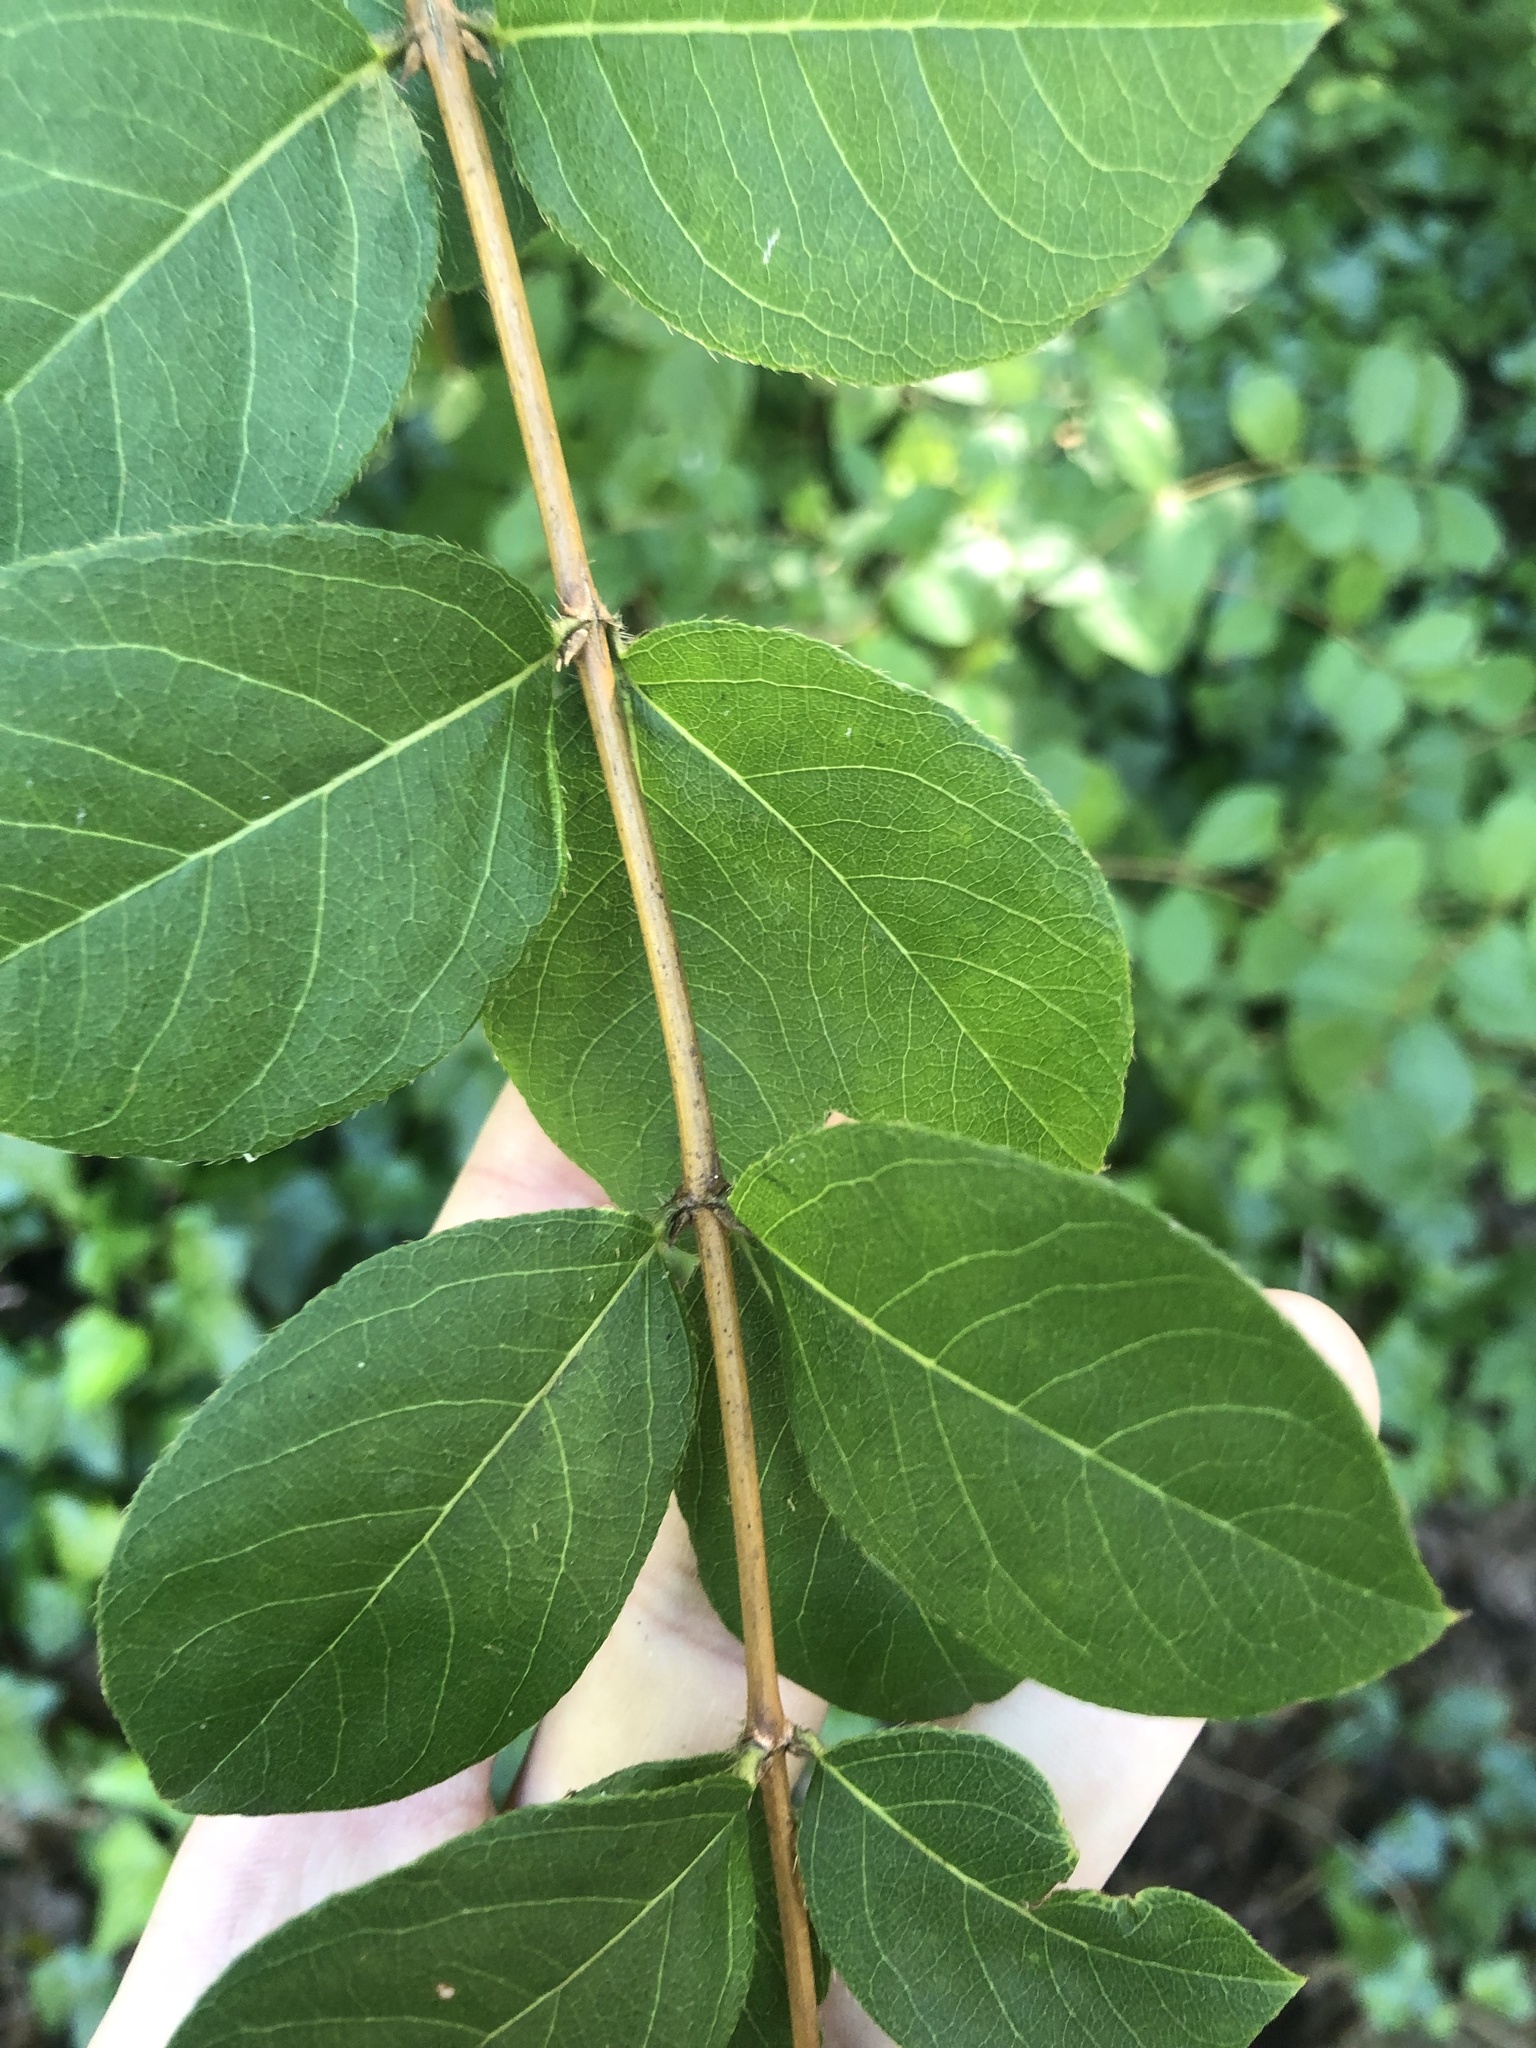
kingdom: Plantae
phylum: Tracheophyta
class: Magnoliopsida
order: Dipsacales
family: Caprifoliaceae
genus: Lonicera
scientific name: Lonicera fragrantissima
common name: Fragrant honeysuckle
